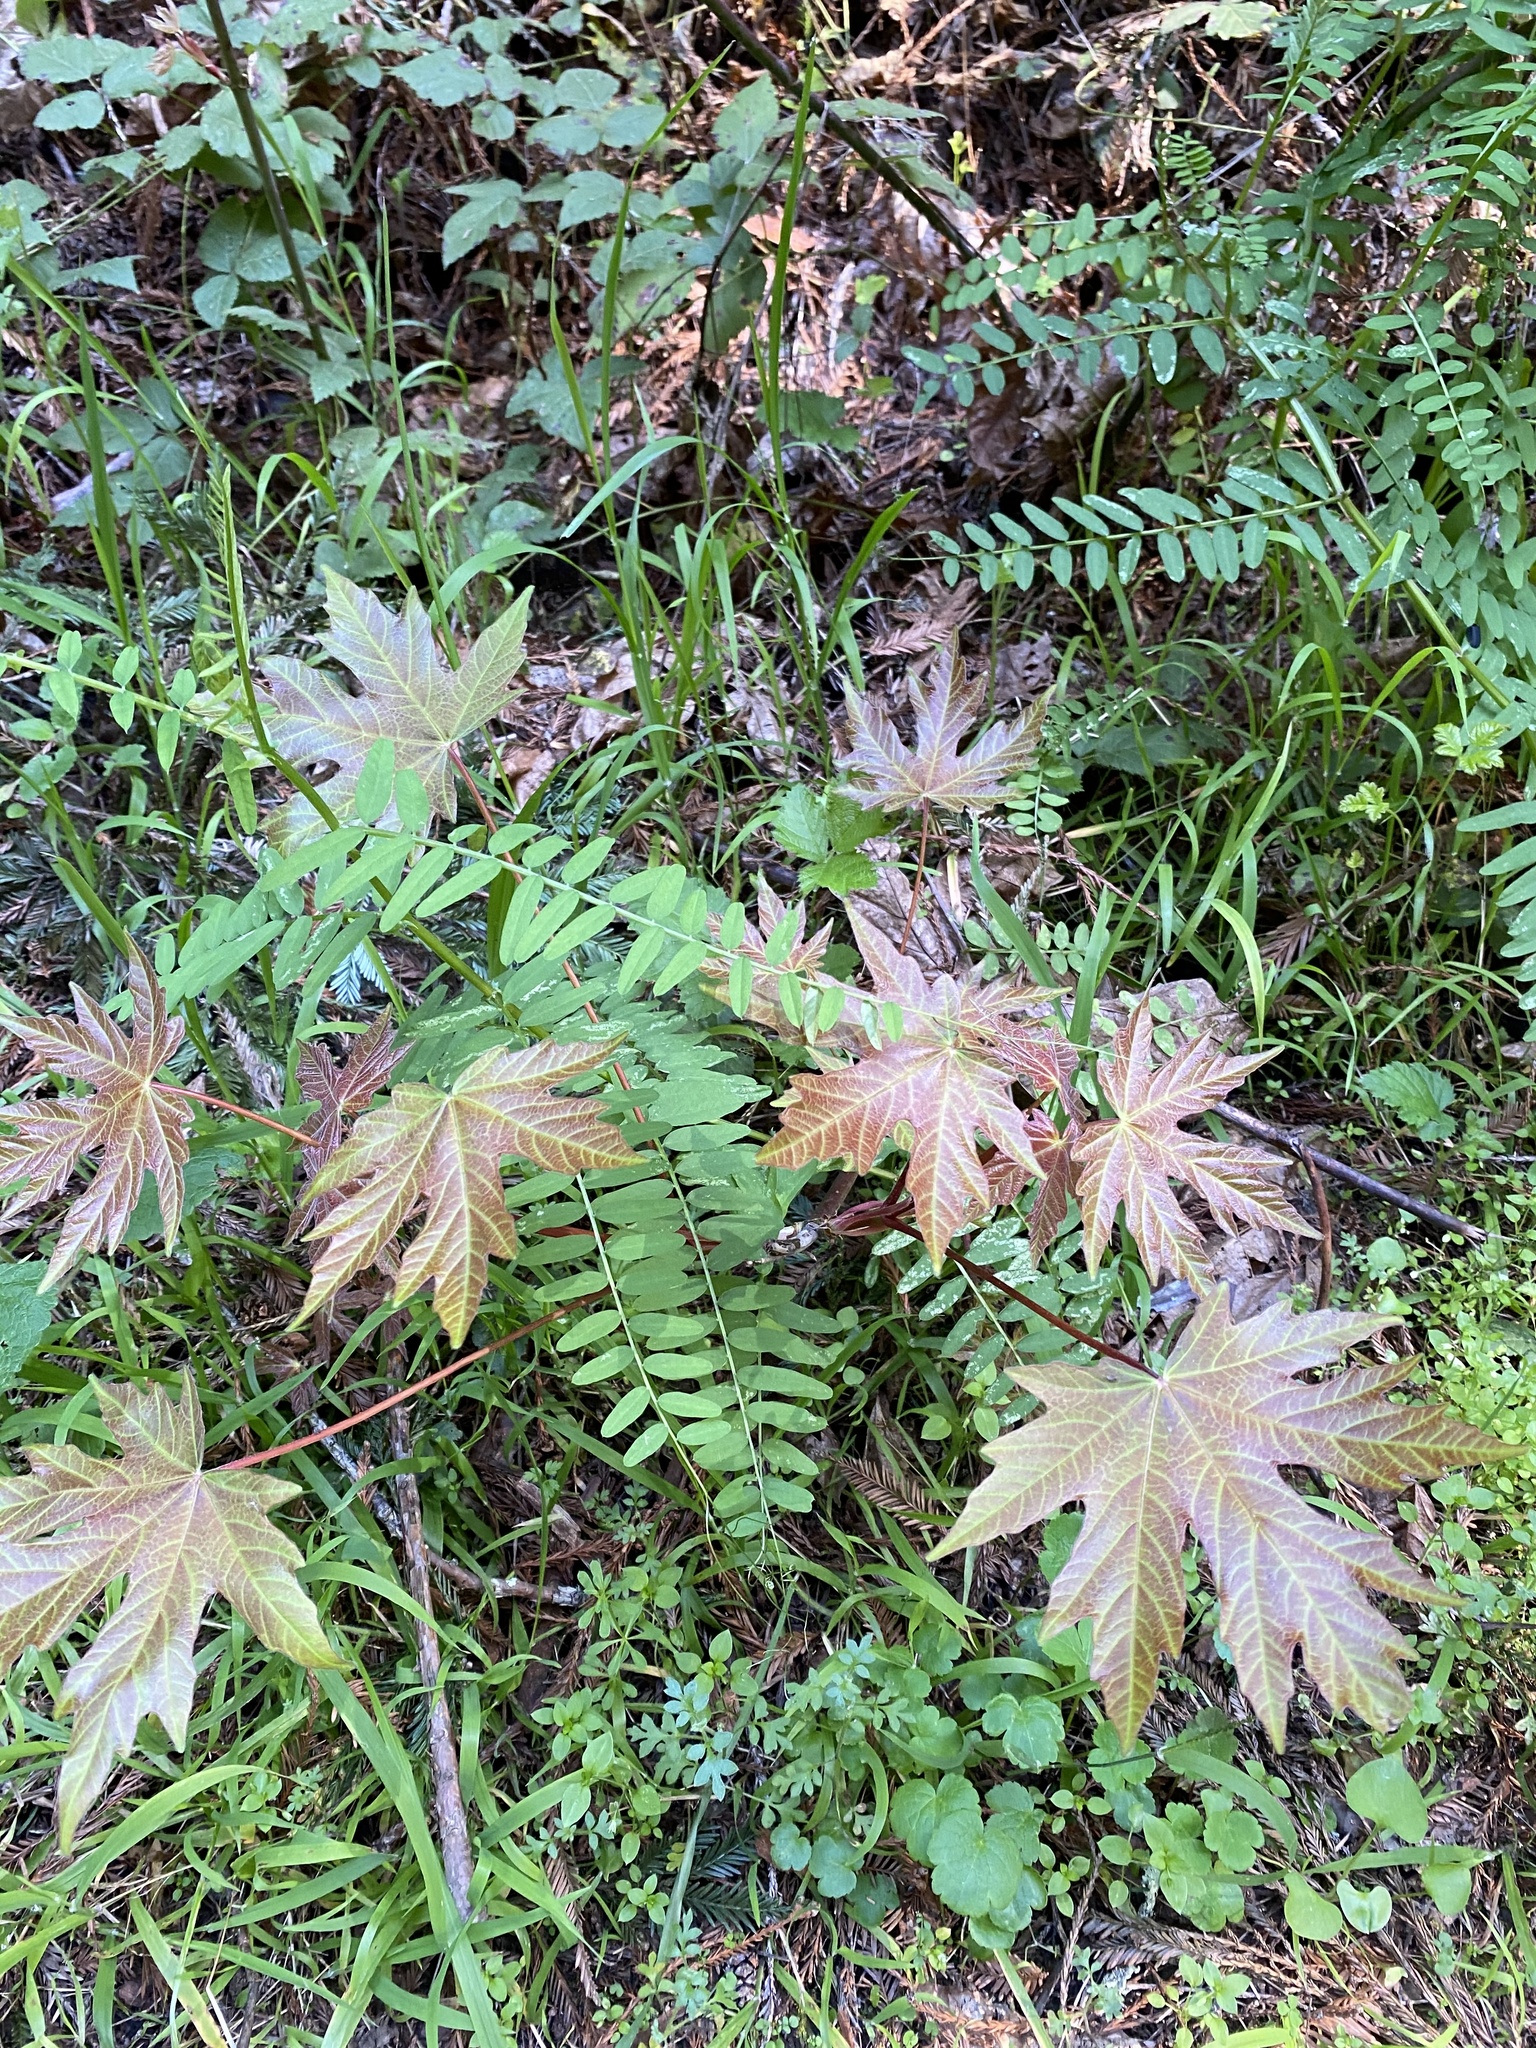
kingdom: Plantae
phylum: Tracheophyta
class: Magnoliopsida
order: Sapindales
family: Sapindaceae
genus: Acer
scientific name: Acer macrophyllum
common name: Oregon maple
